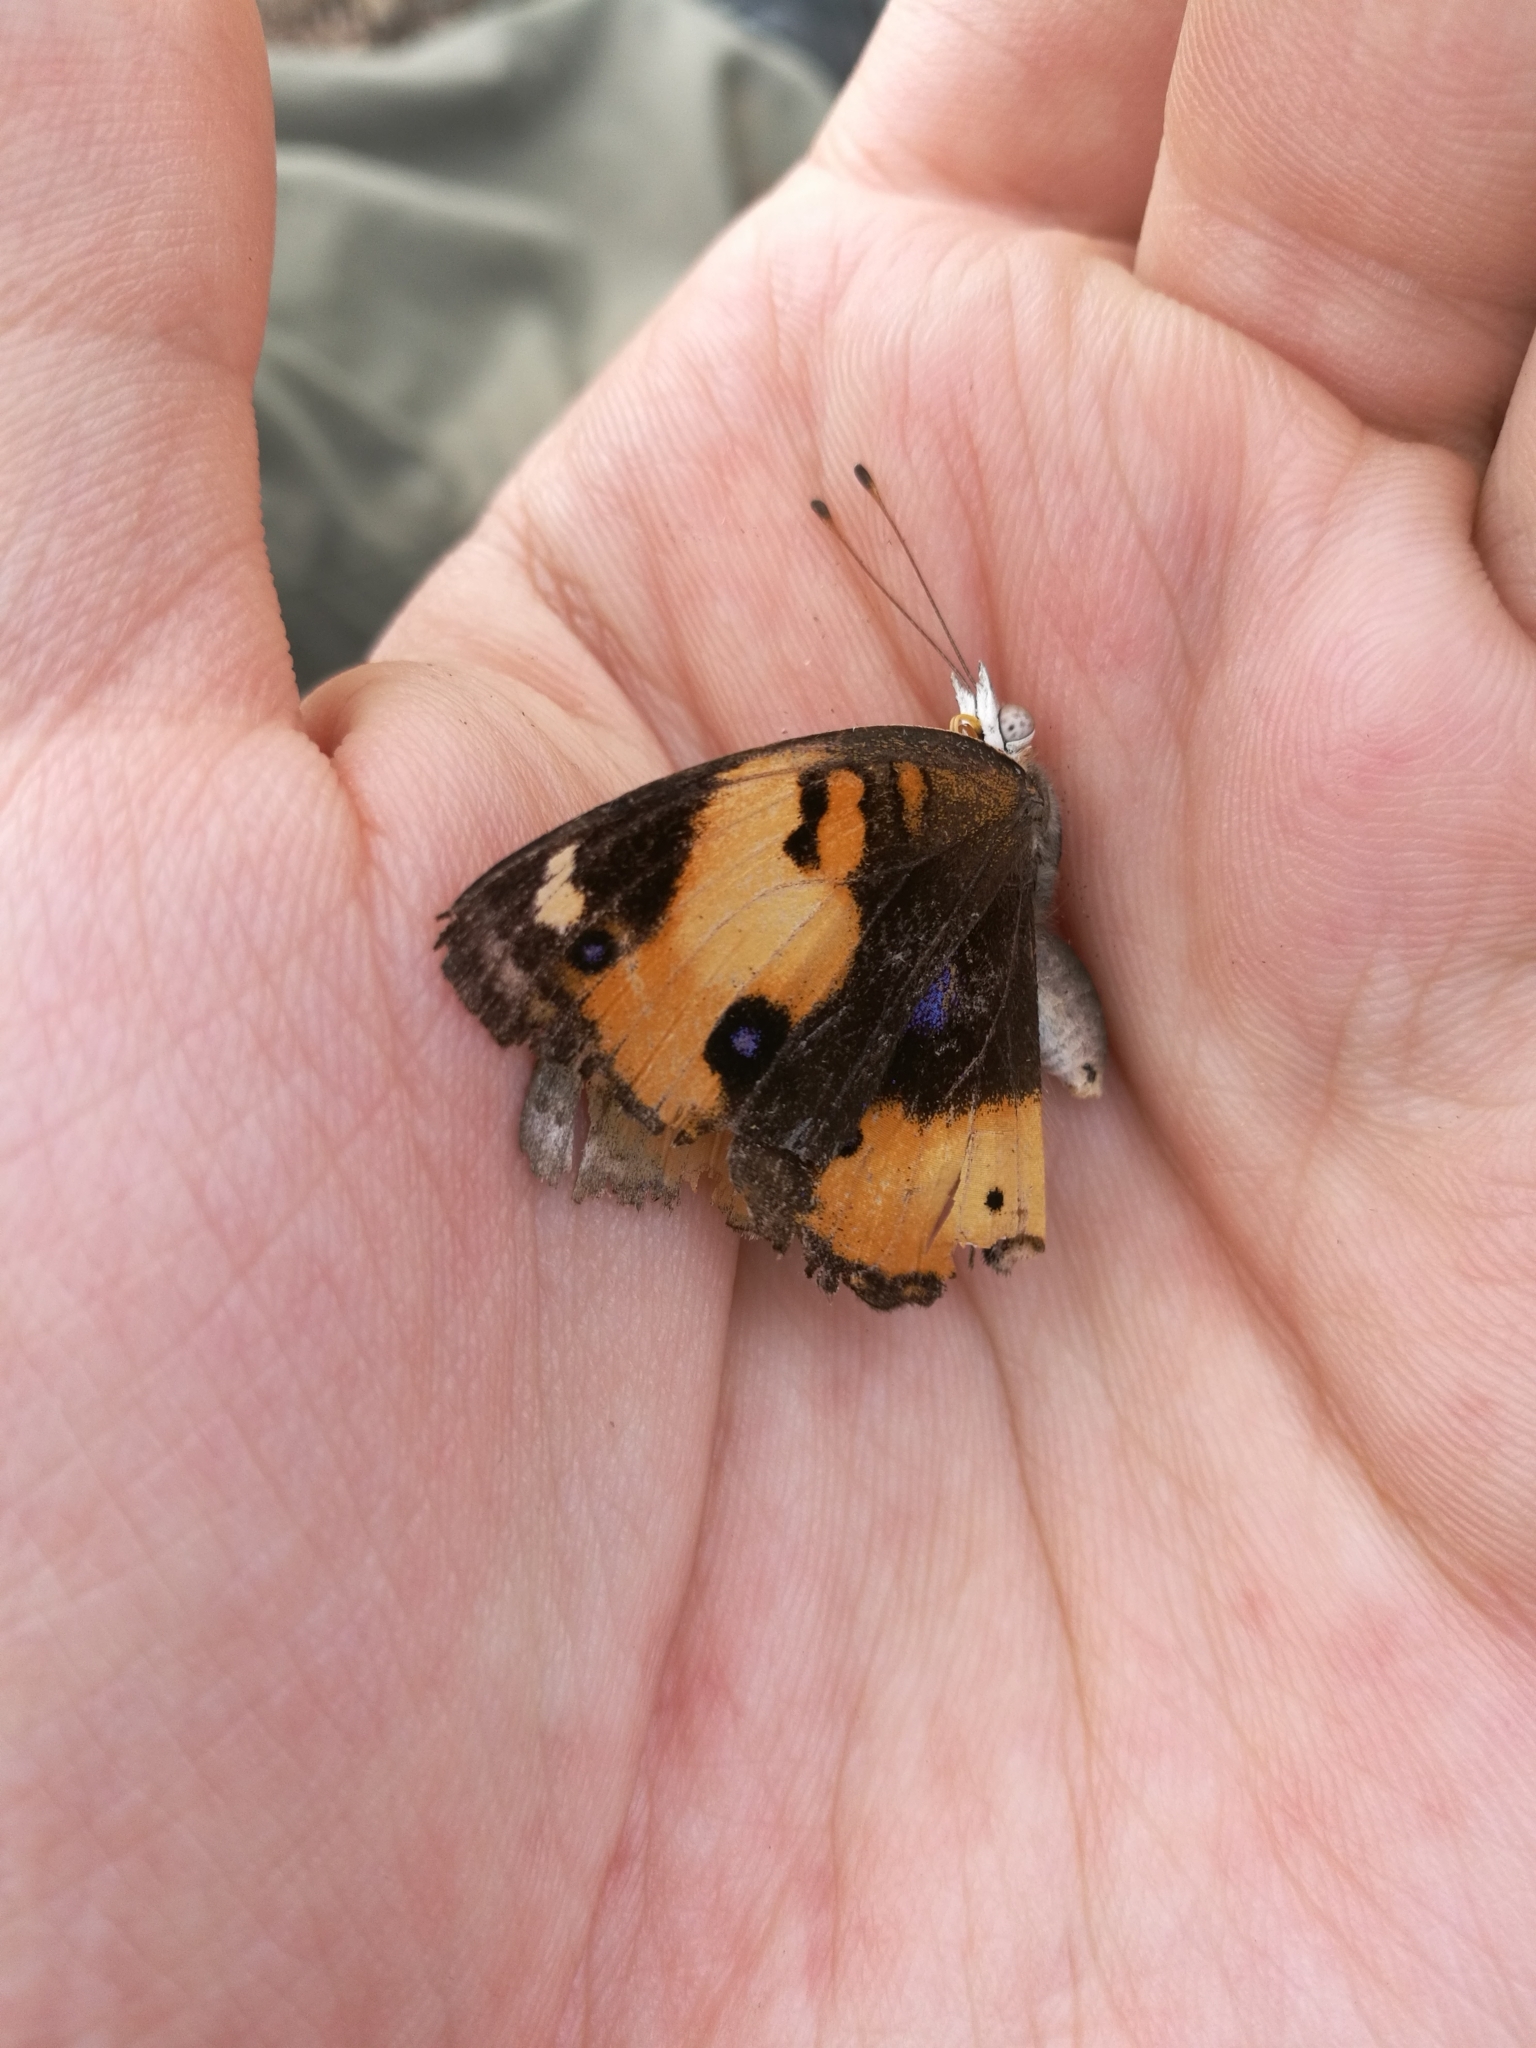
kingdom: Animalia
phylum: Arthropoda
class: Insecta
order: Lepidoptera
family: Nymphalidae
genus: Junonia
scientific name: Junonia hierta
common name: Yellow pansy
